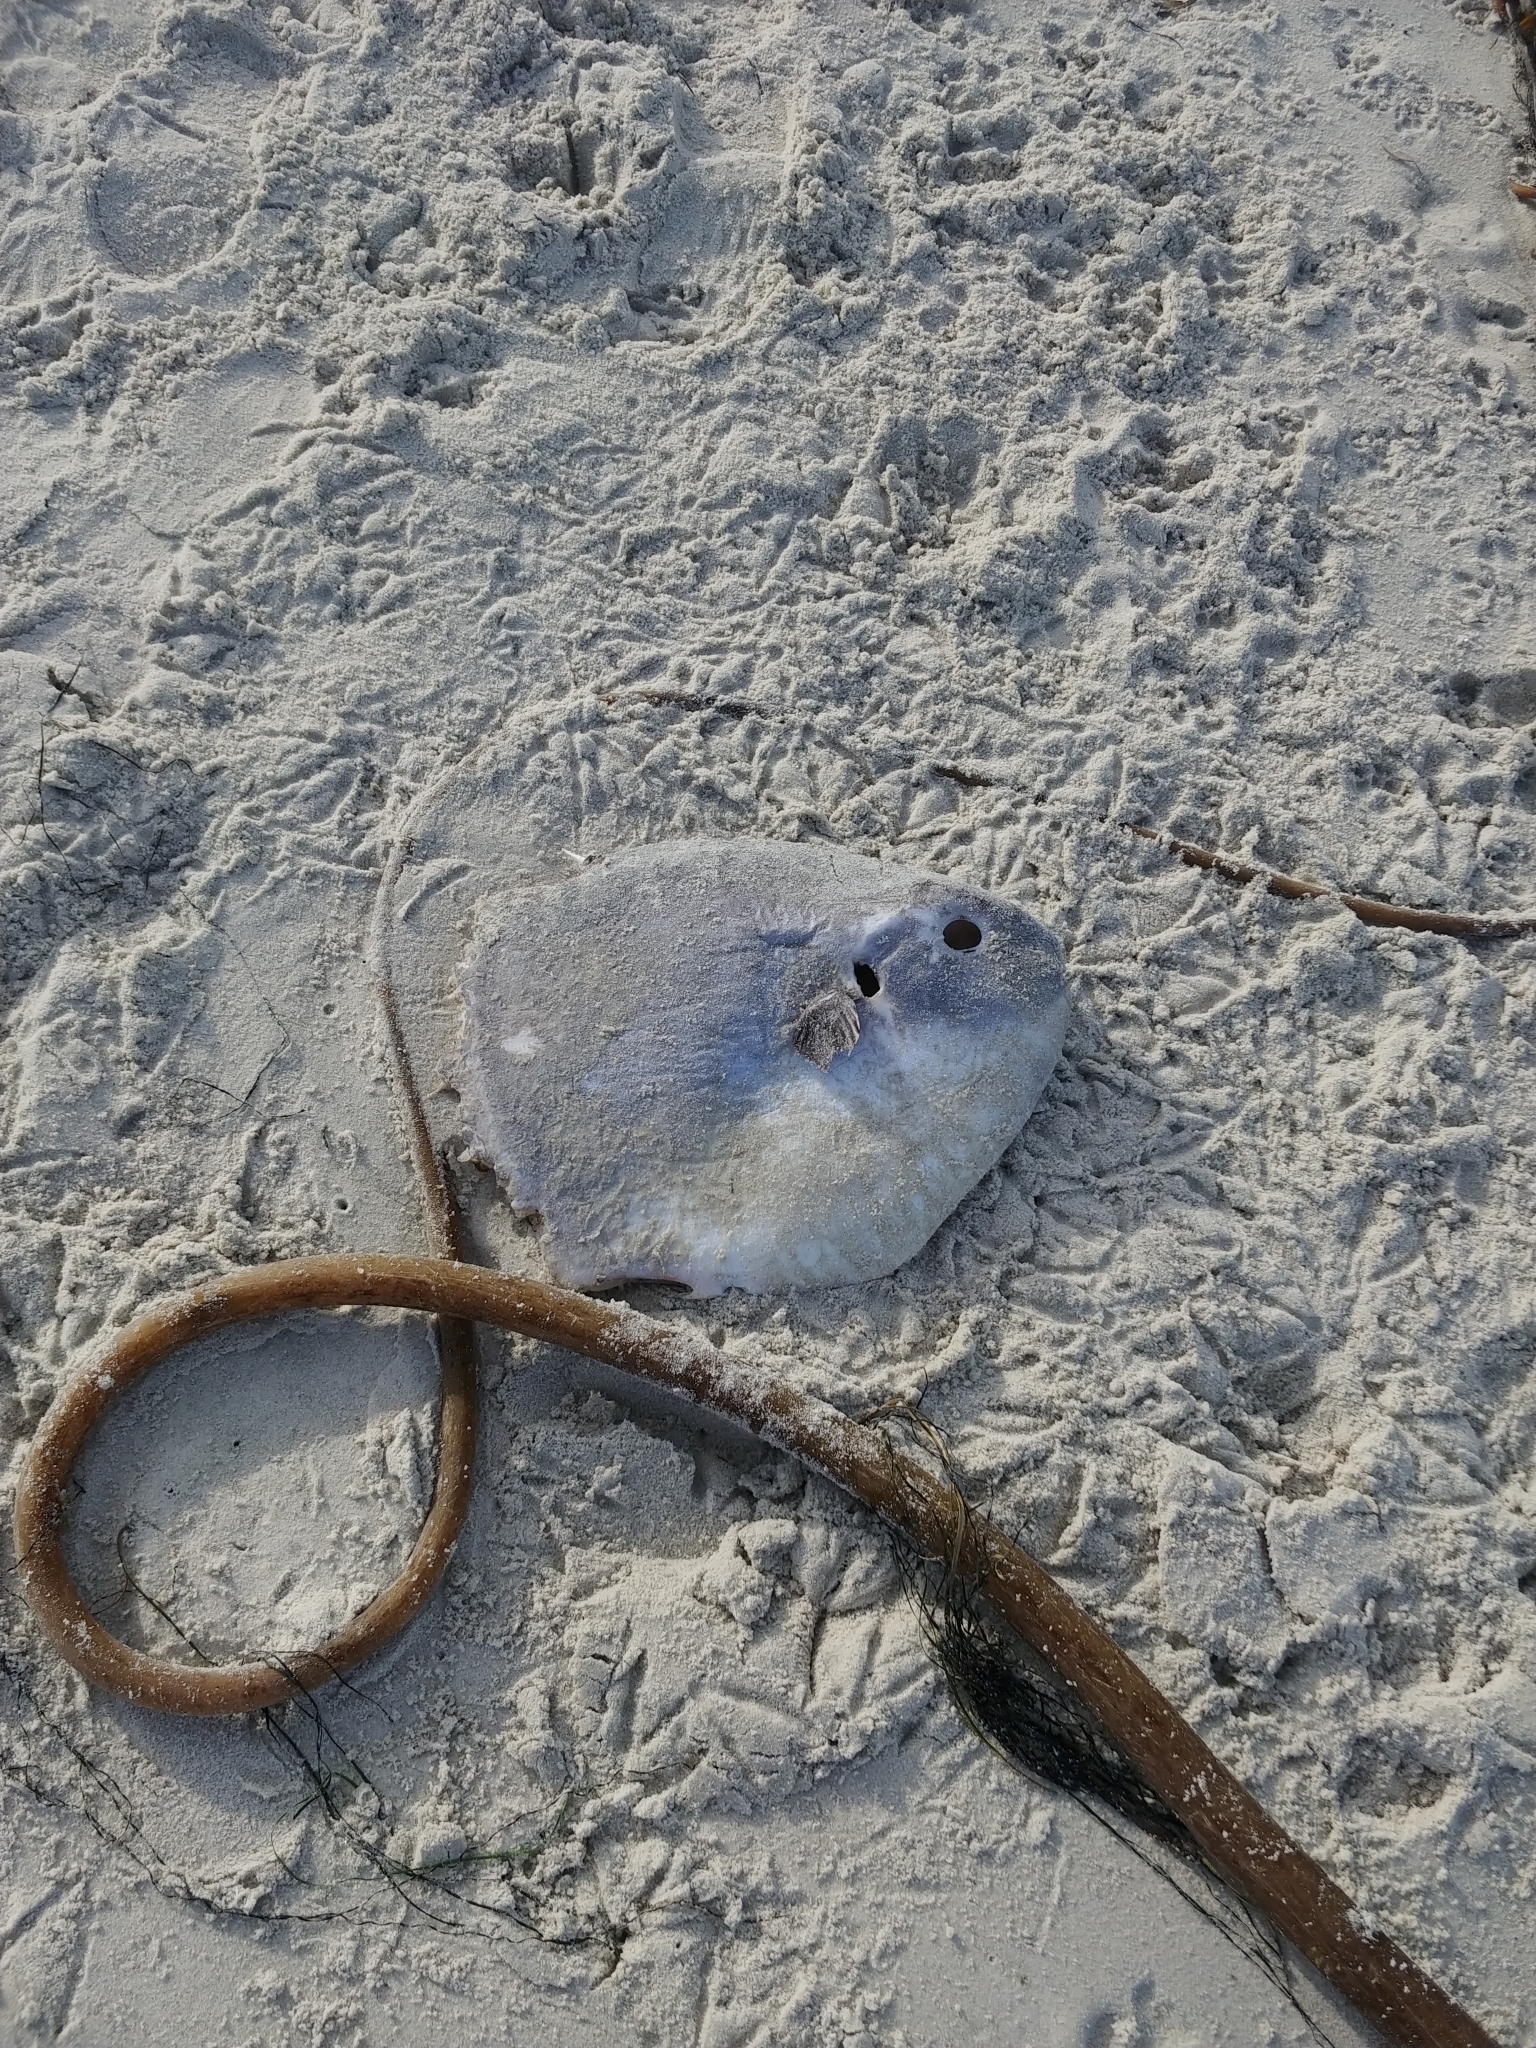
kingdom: Animalia
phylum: Chordata
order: Tetraodontiformes
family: Molidae
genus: Mola
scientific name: Mola mola
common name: Ocean sunfish
